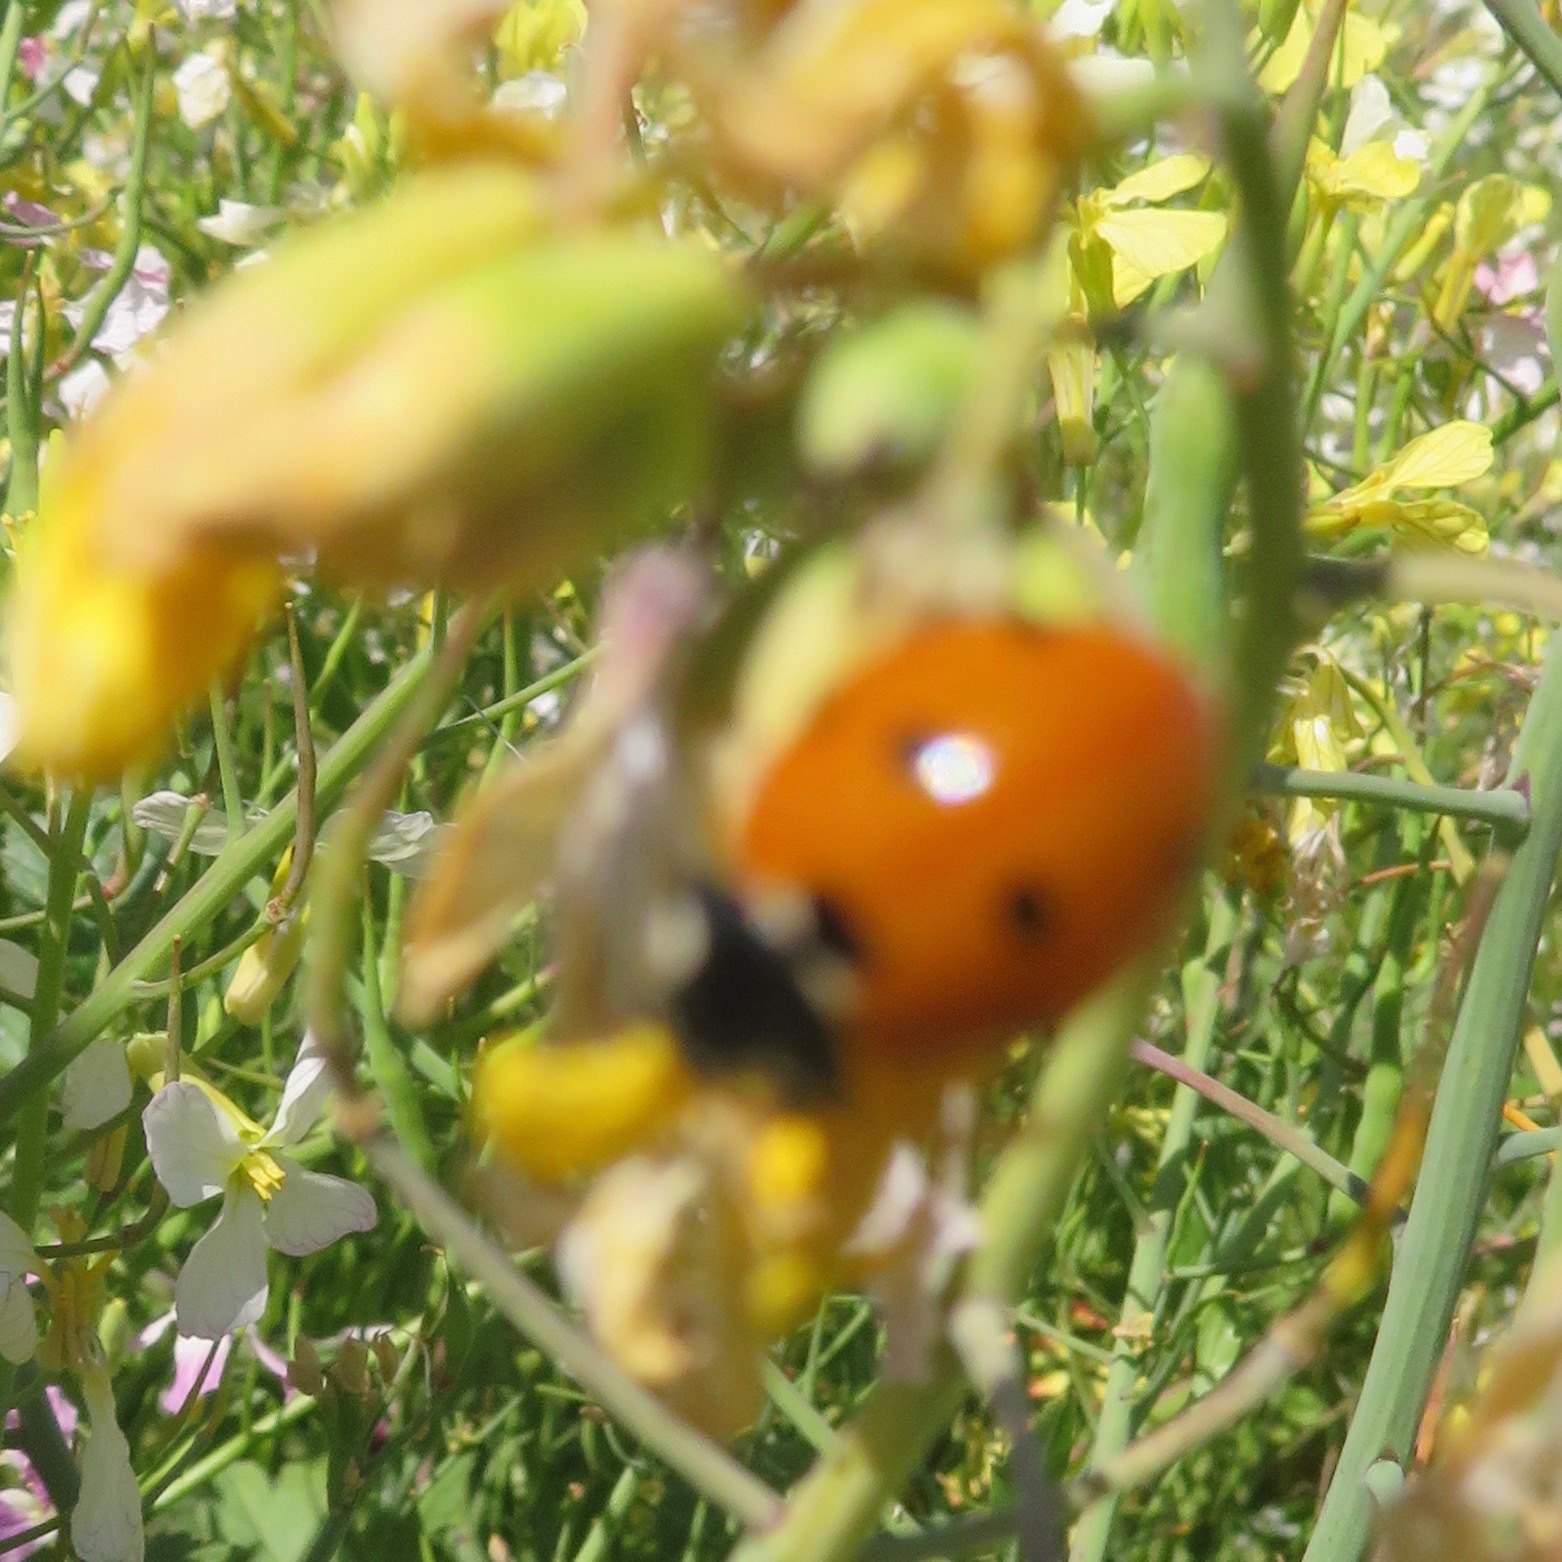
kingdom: Animalia
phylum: Arthropoda
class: Insecta
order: Coleoptera
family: Coccinellidae
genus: Coccinella
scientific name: Coccinella septempunctata
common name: Sevenspotted lady beetle
